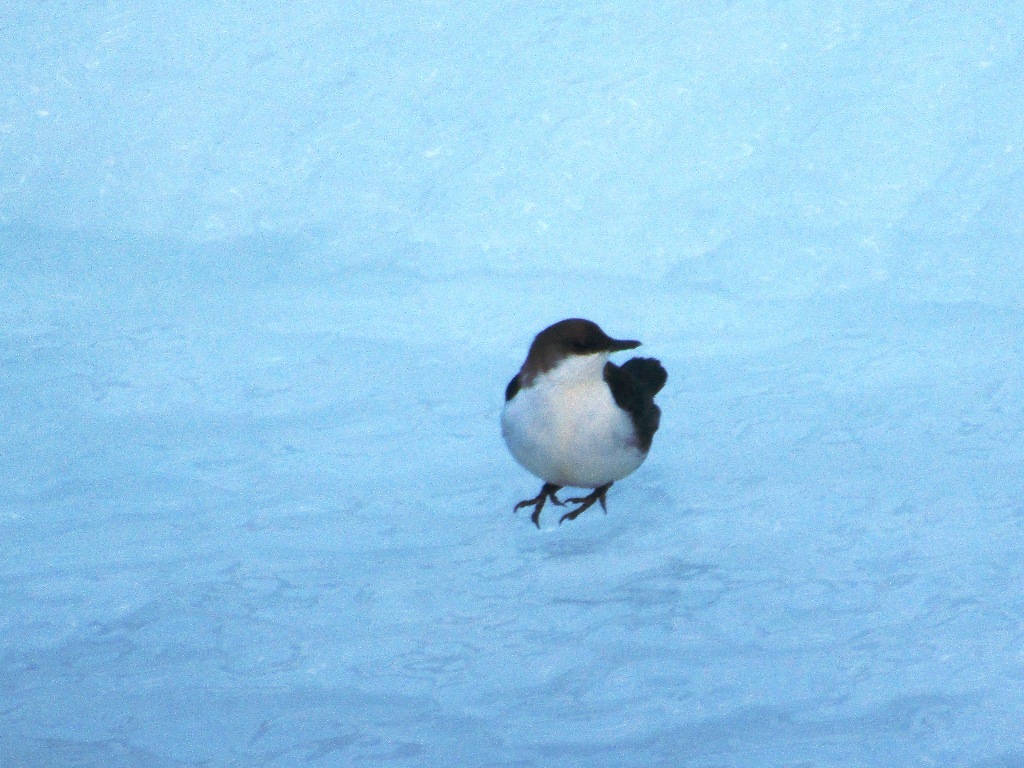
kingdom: Animalia
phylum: Chordata
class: Aves
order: Passeriformes
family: Cinclidae
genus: Cinclus
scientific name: Cinclus cinclus
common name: White-throated dipper
